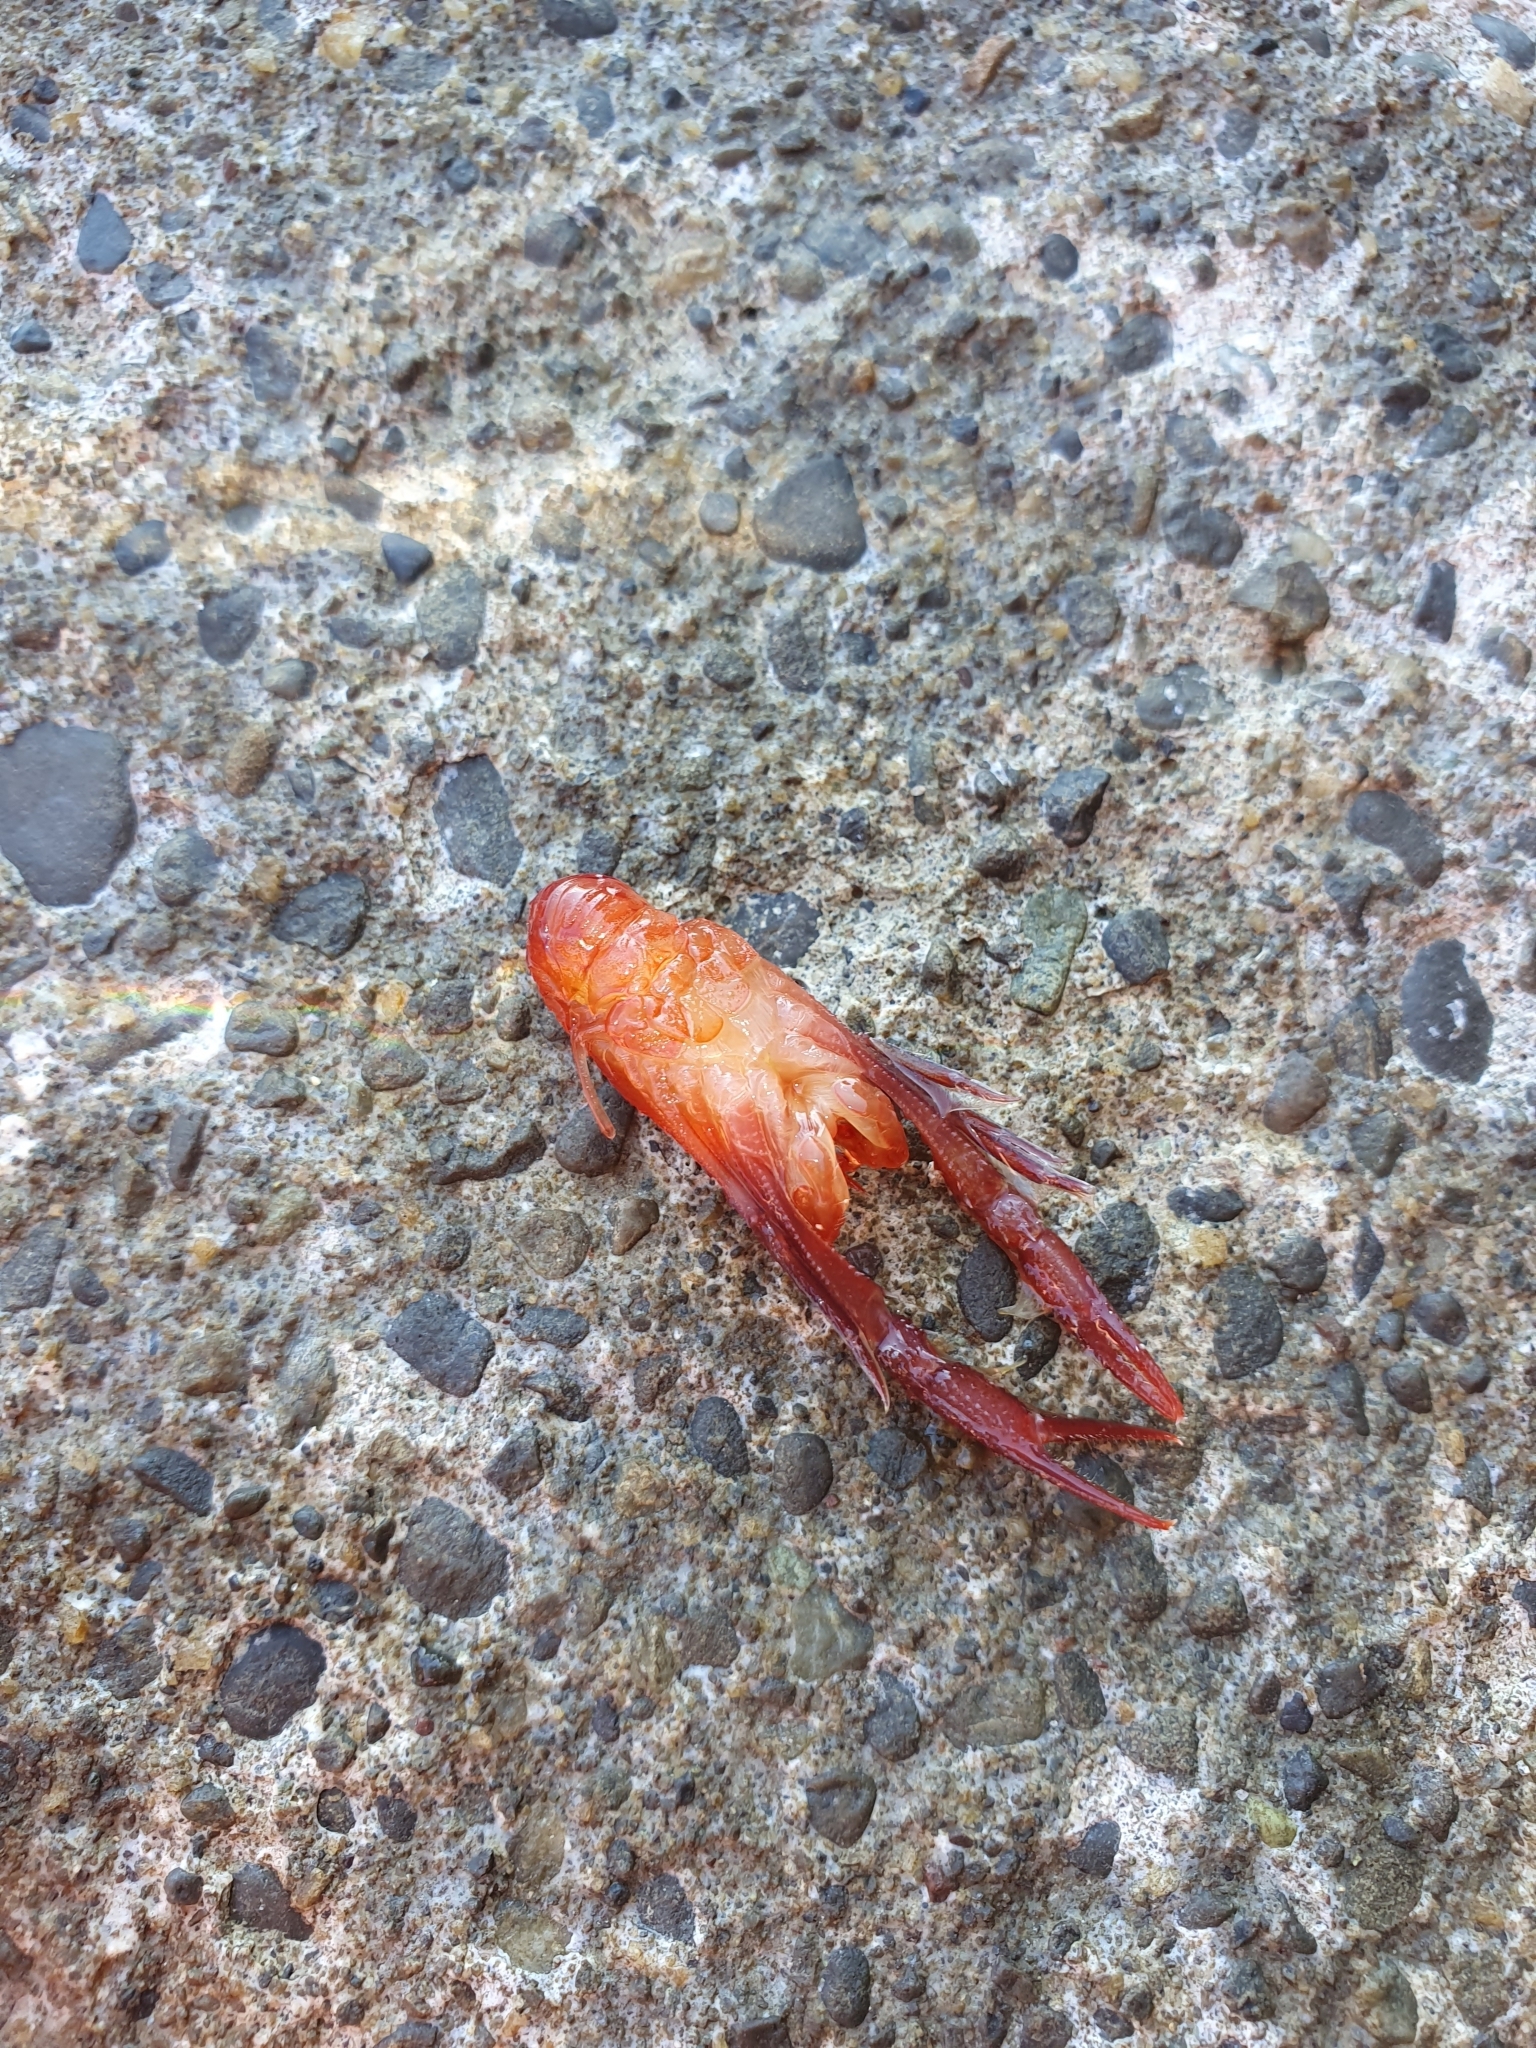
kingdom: Animalia
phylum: Arthropoda
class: Malacostraca
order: Decapoda
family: Munididae
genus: Grimothea
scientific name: Grimothea gregaria
